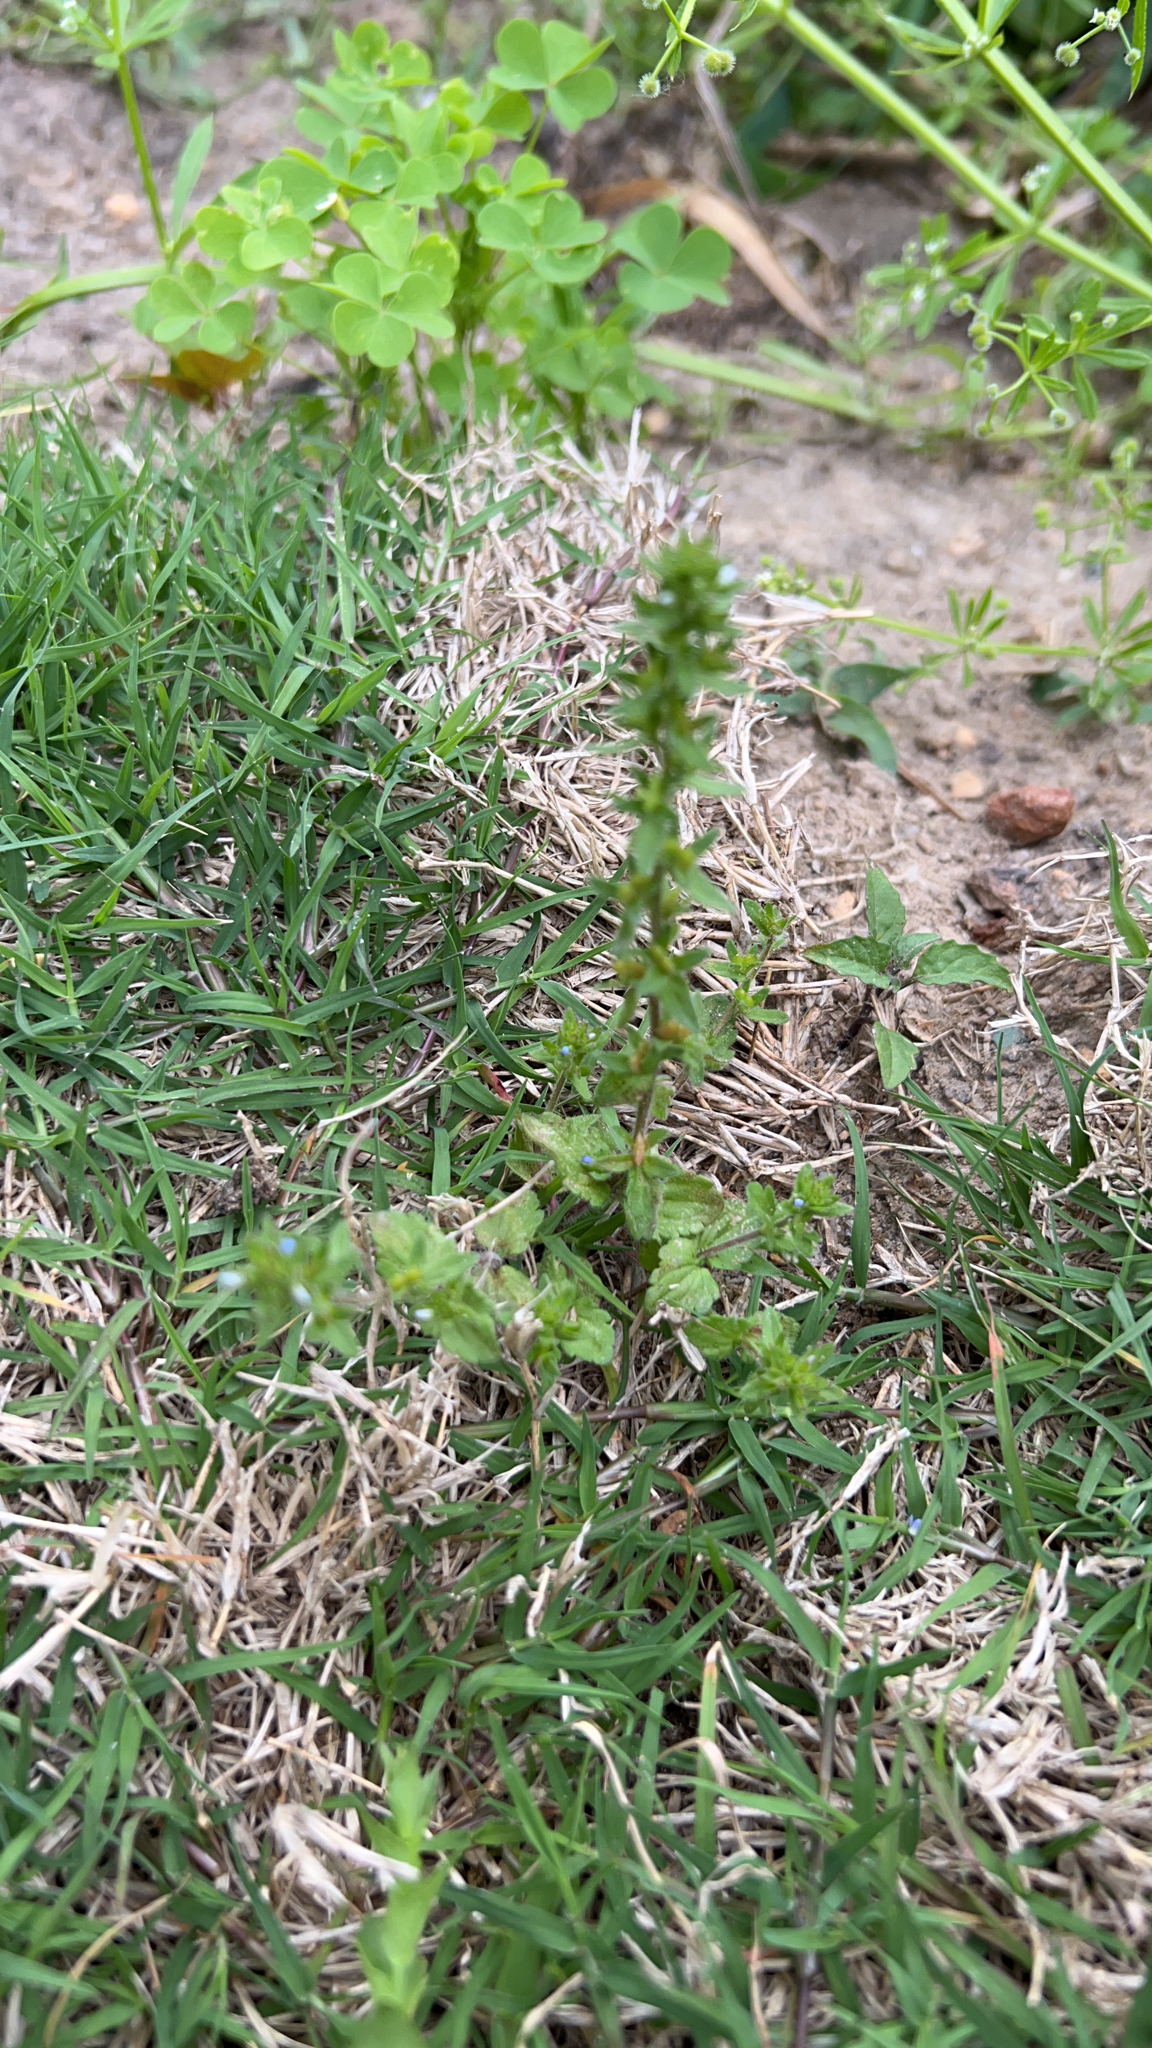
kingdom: Plantae
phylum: Tracheophyta
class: Magnoliopsida
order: Lamiales
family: Plantaginaceae
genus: Veronica
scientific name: Veronica arvensis
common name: Corn speedwell
